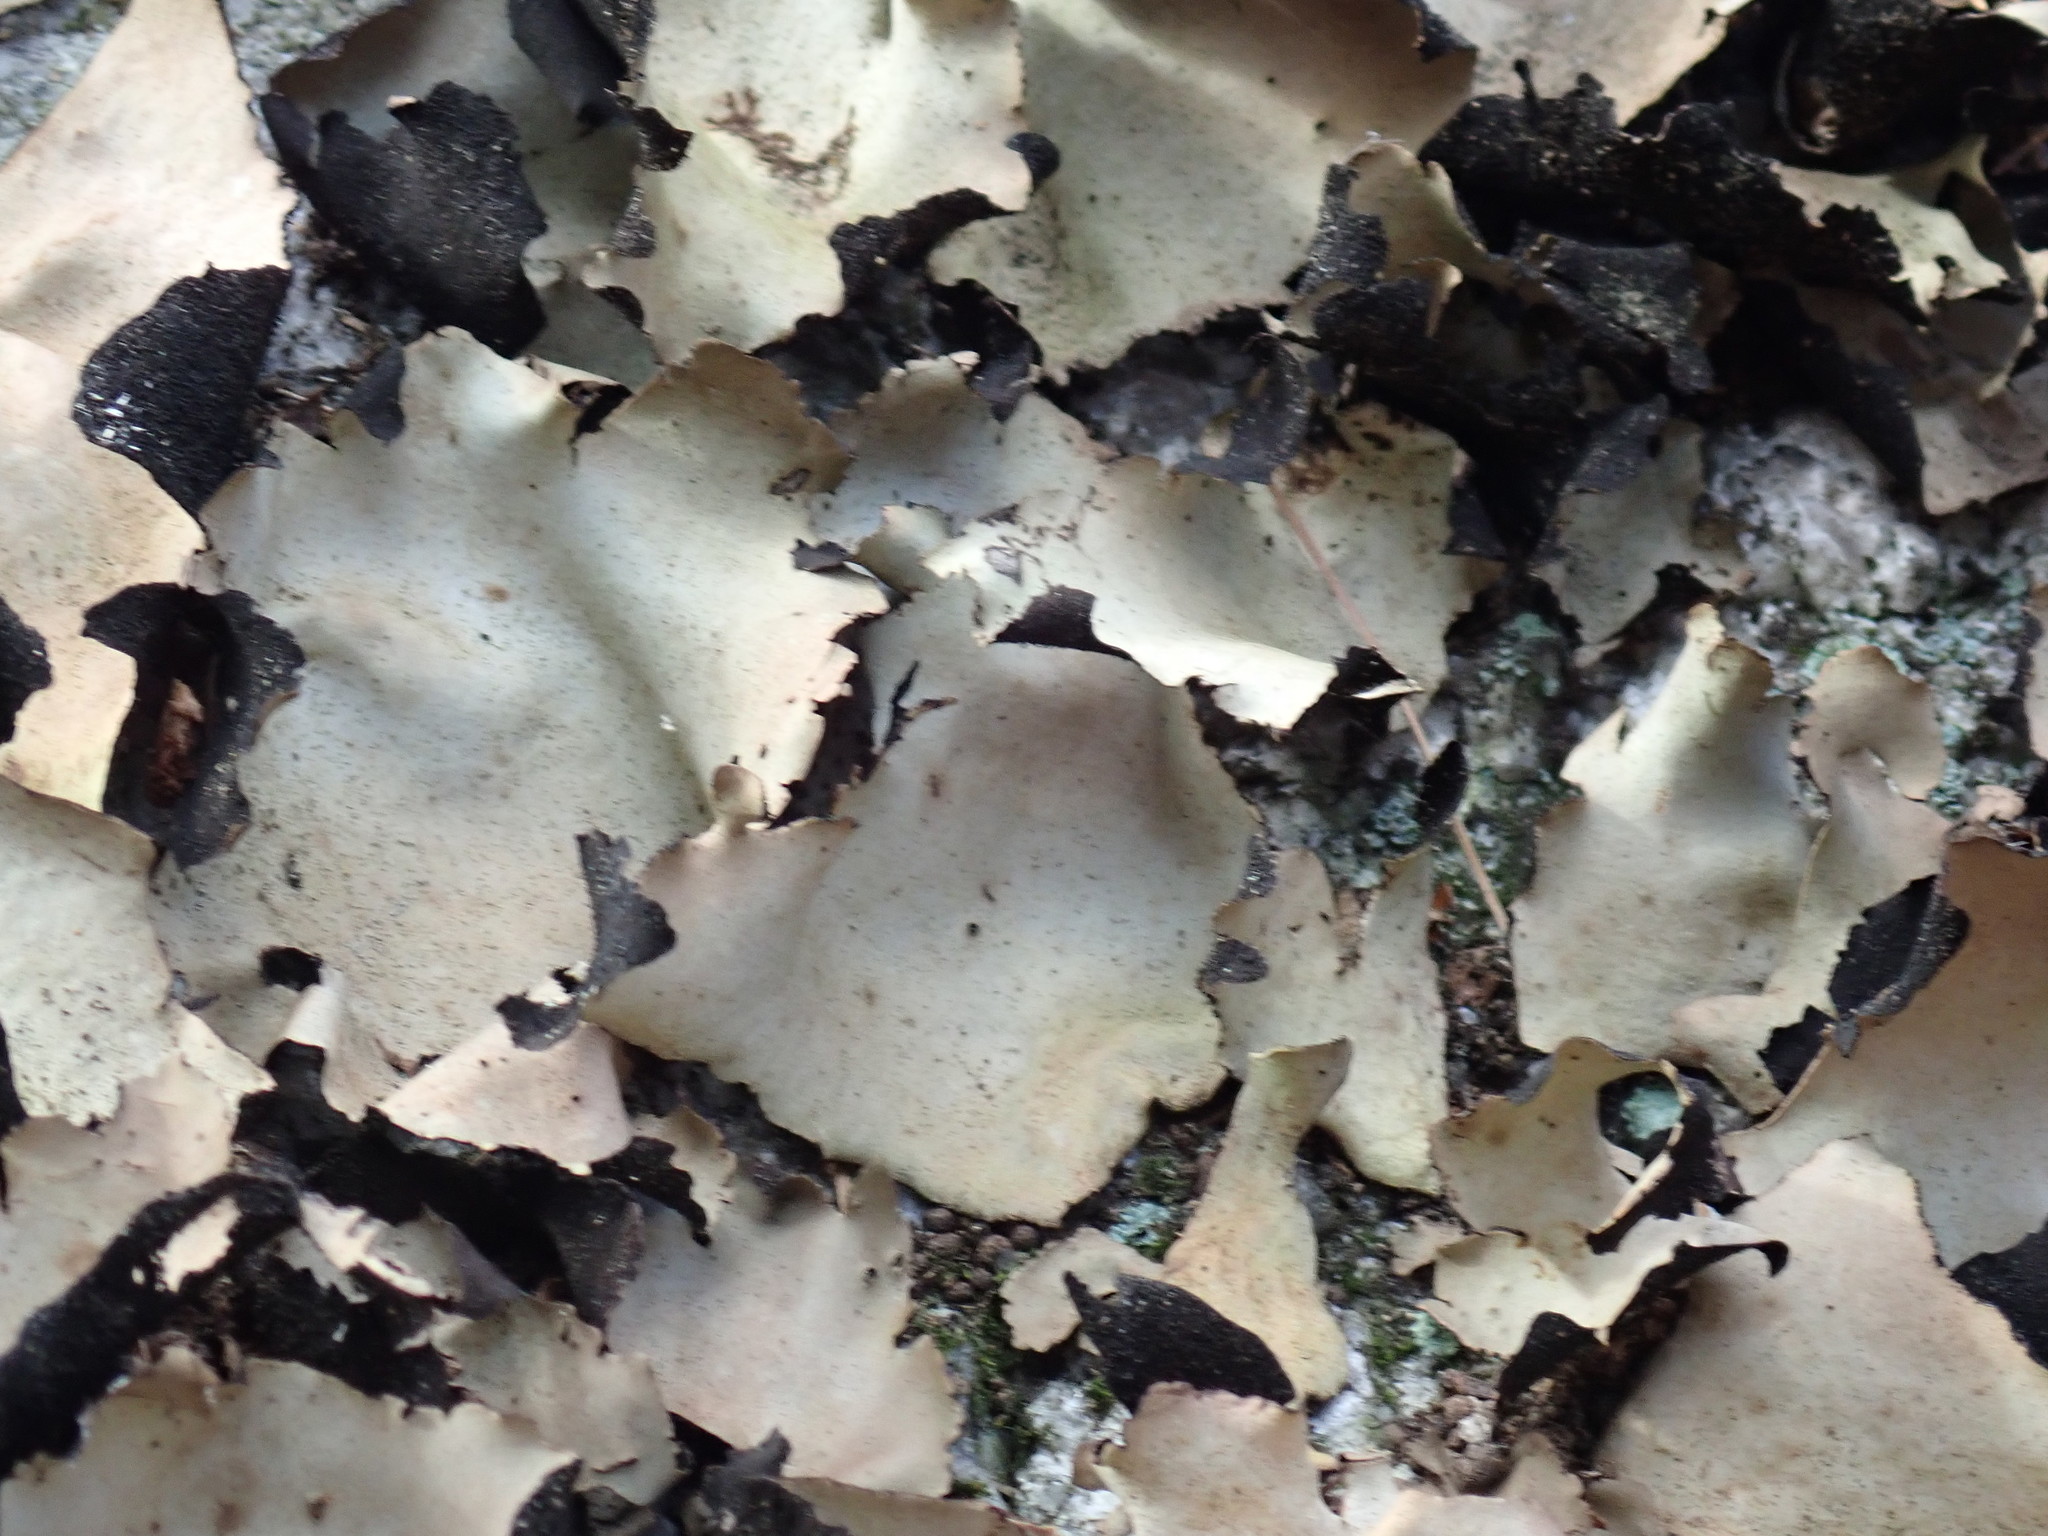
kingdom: Fungi
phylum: Ascomycota
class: Lecanoromycetes
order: Umbilicariales
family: Umbilicariaceae
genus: Umbilicaria
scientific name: Umbilicaria mammulata
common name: Smooth rock tripe
